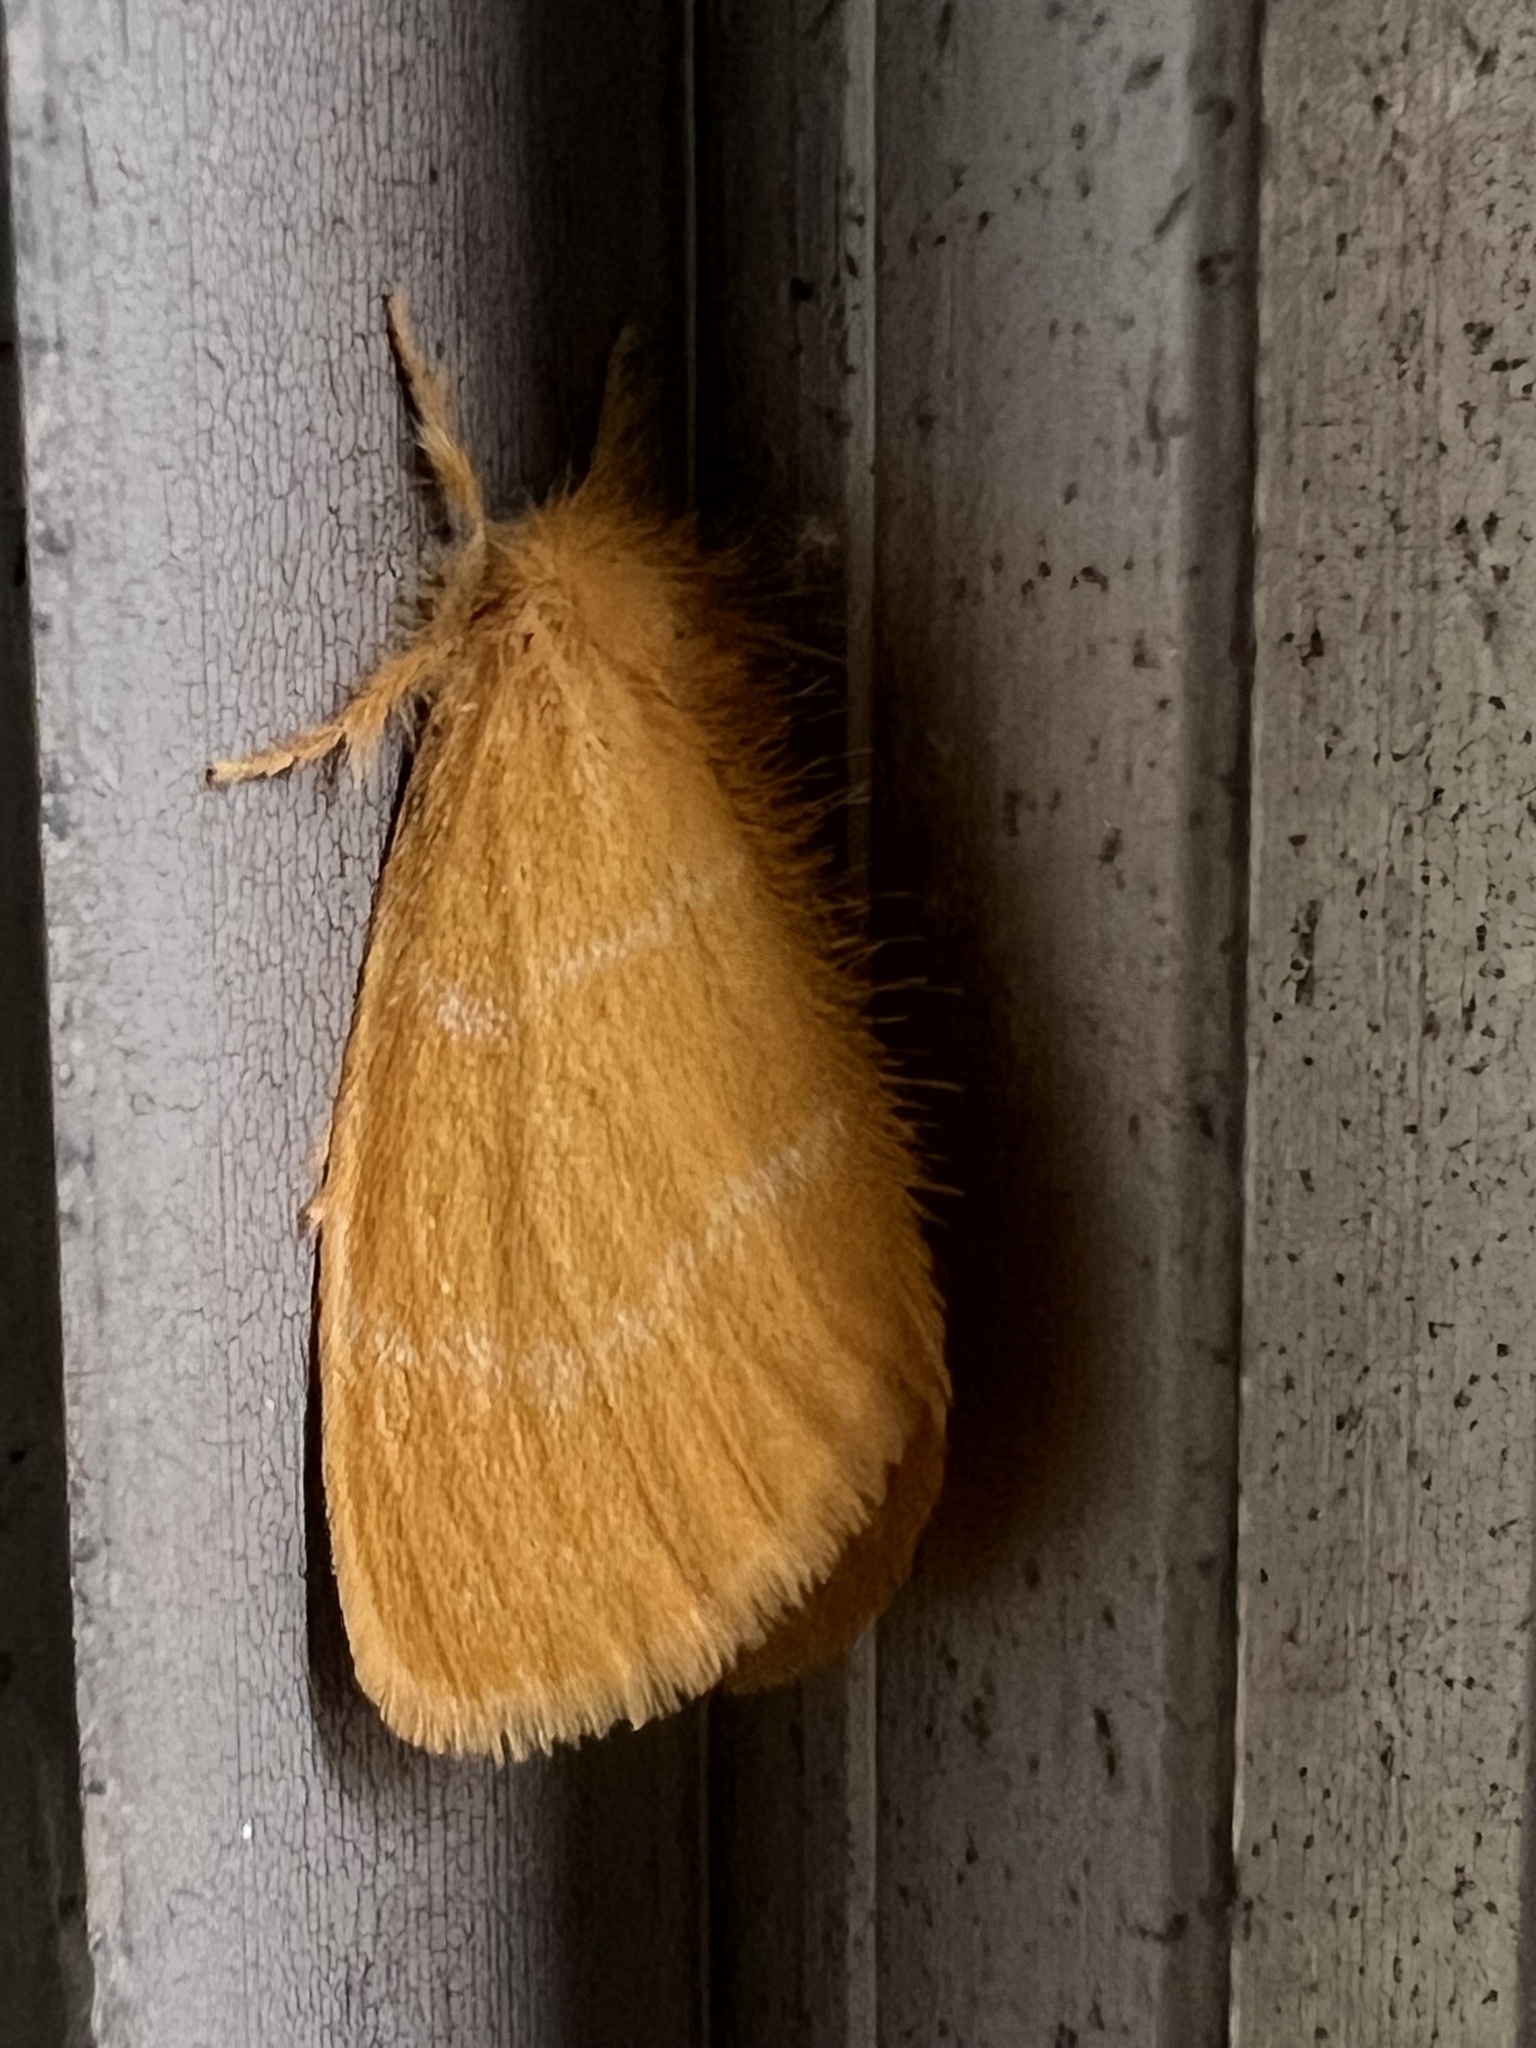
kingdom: Animalia
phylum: Arthropoda
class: Insecta
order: Lepidoptera
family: Erebidae
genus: Euproctis
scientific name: Euproctis lutea
